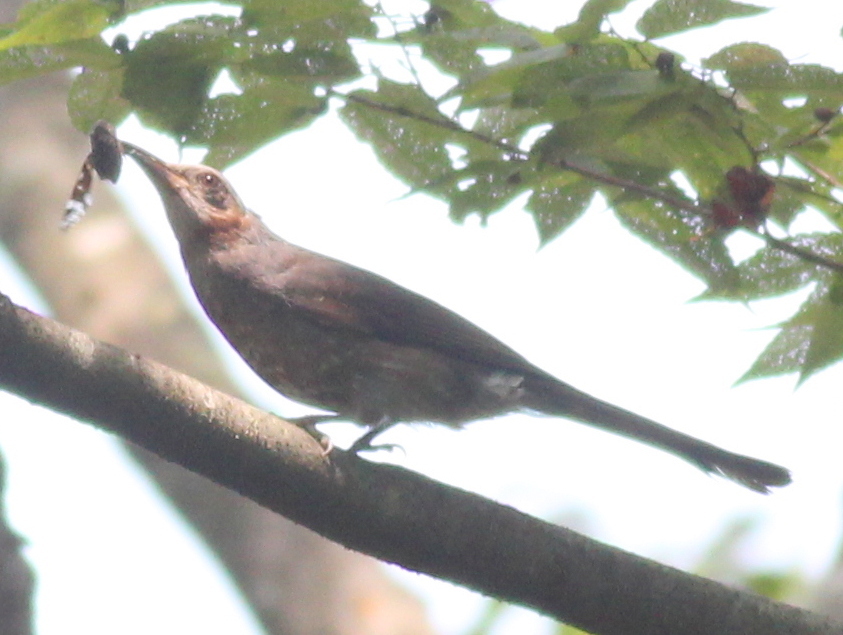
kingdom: Animalia
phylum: Chordata
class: Aves
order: Passeriformes
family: Pycnonotidae
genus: Hypsipetes
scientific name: Hypsipetes amaurotis
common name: Brown-eared bulbul
